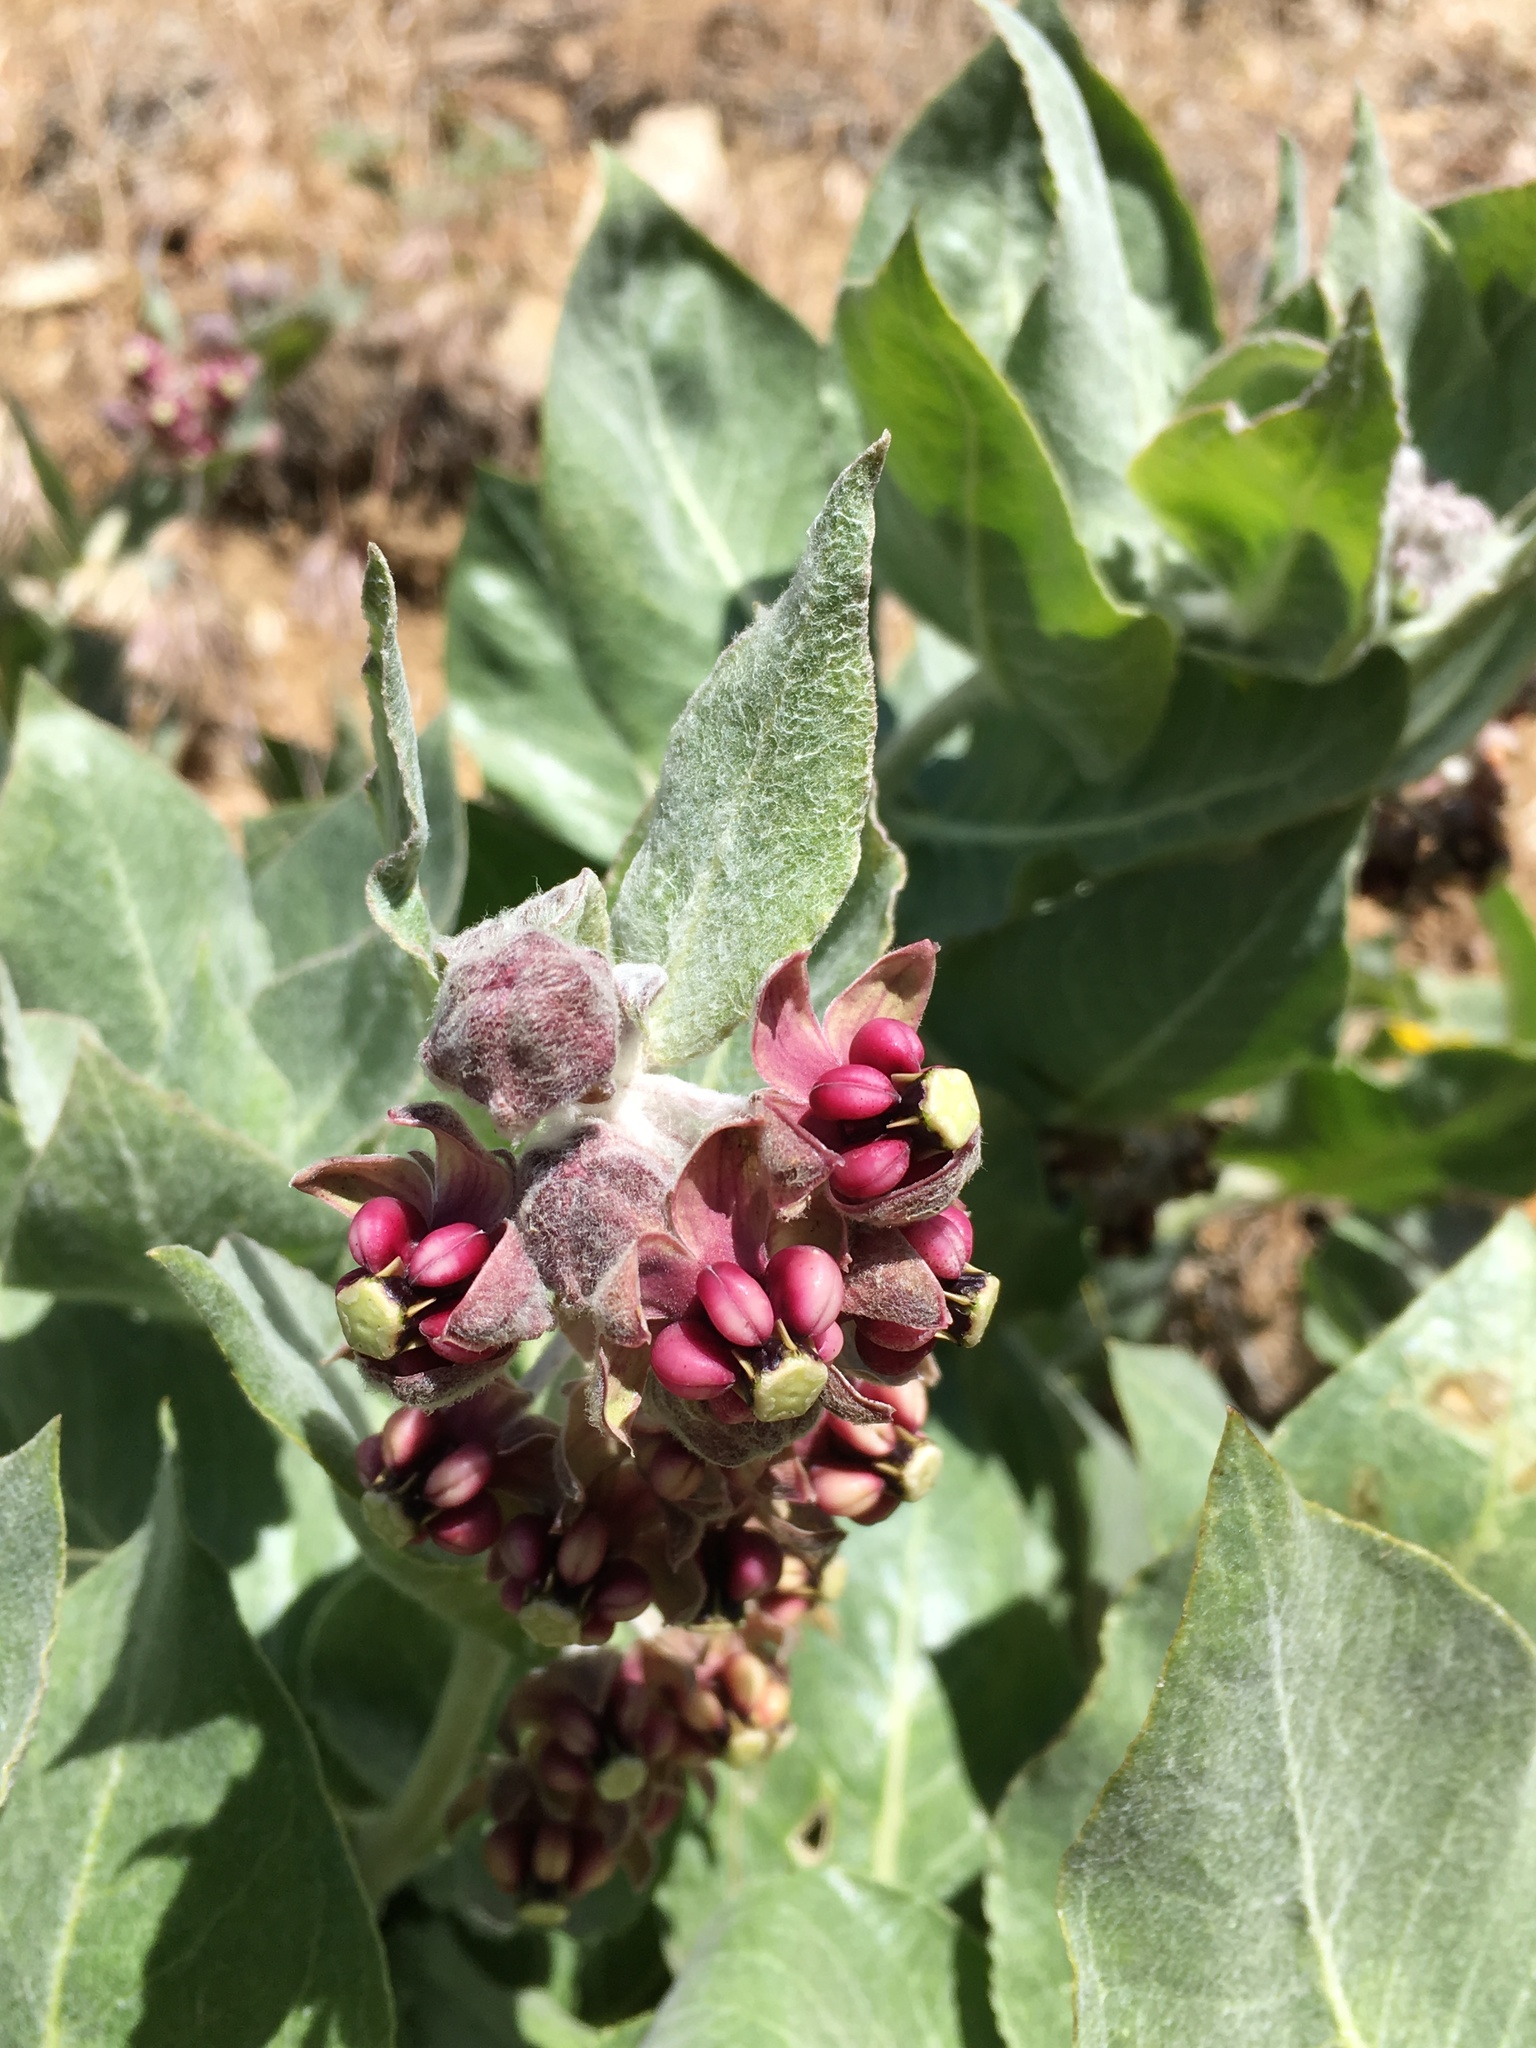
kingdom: Plantae
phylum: Tracheophyta
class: Magnoliopsida
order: Gentianales
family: Apocynaceae
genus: Asclepias
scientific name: Asclepias californica
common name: California milkweed
